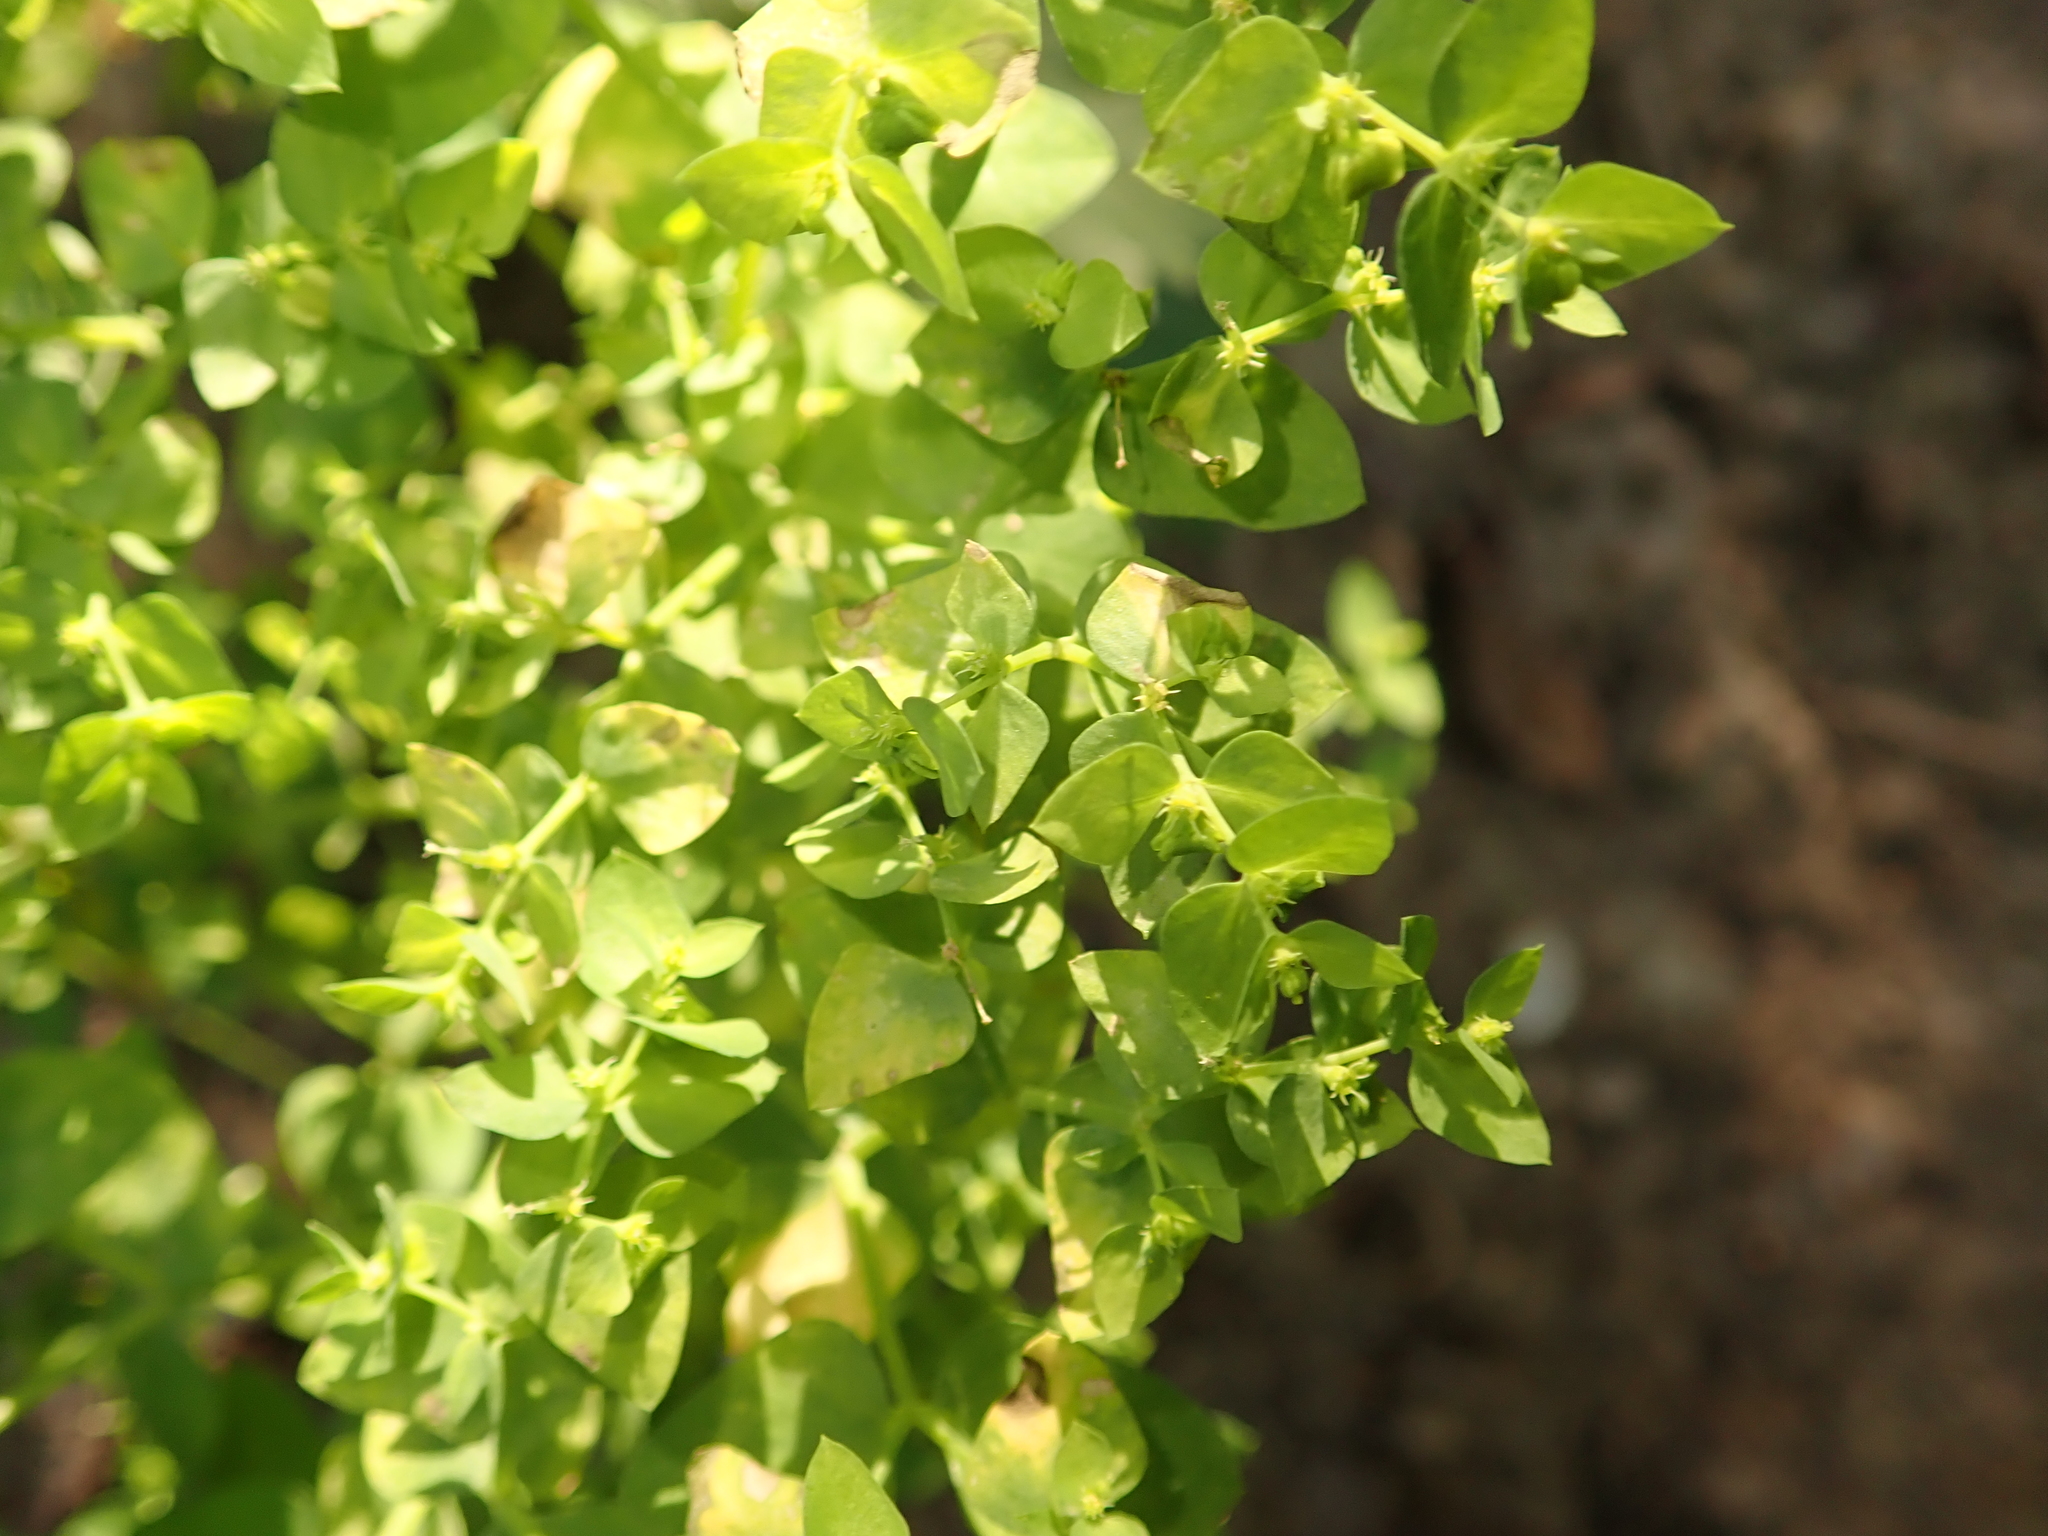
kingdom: Plantae
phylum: Tracheophyta
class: Magnoliopsida
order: Malpighiales
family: Euphorbiaceae
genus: Euphorbia
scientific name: Euphorbia peplus
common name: Petty spurge
